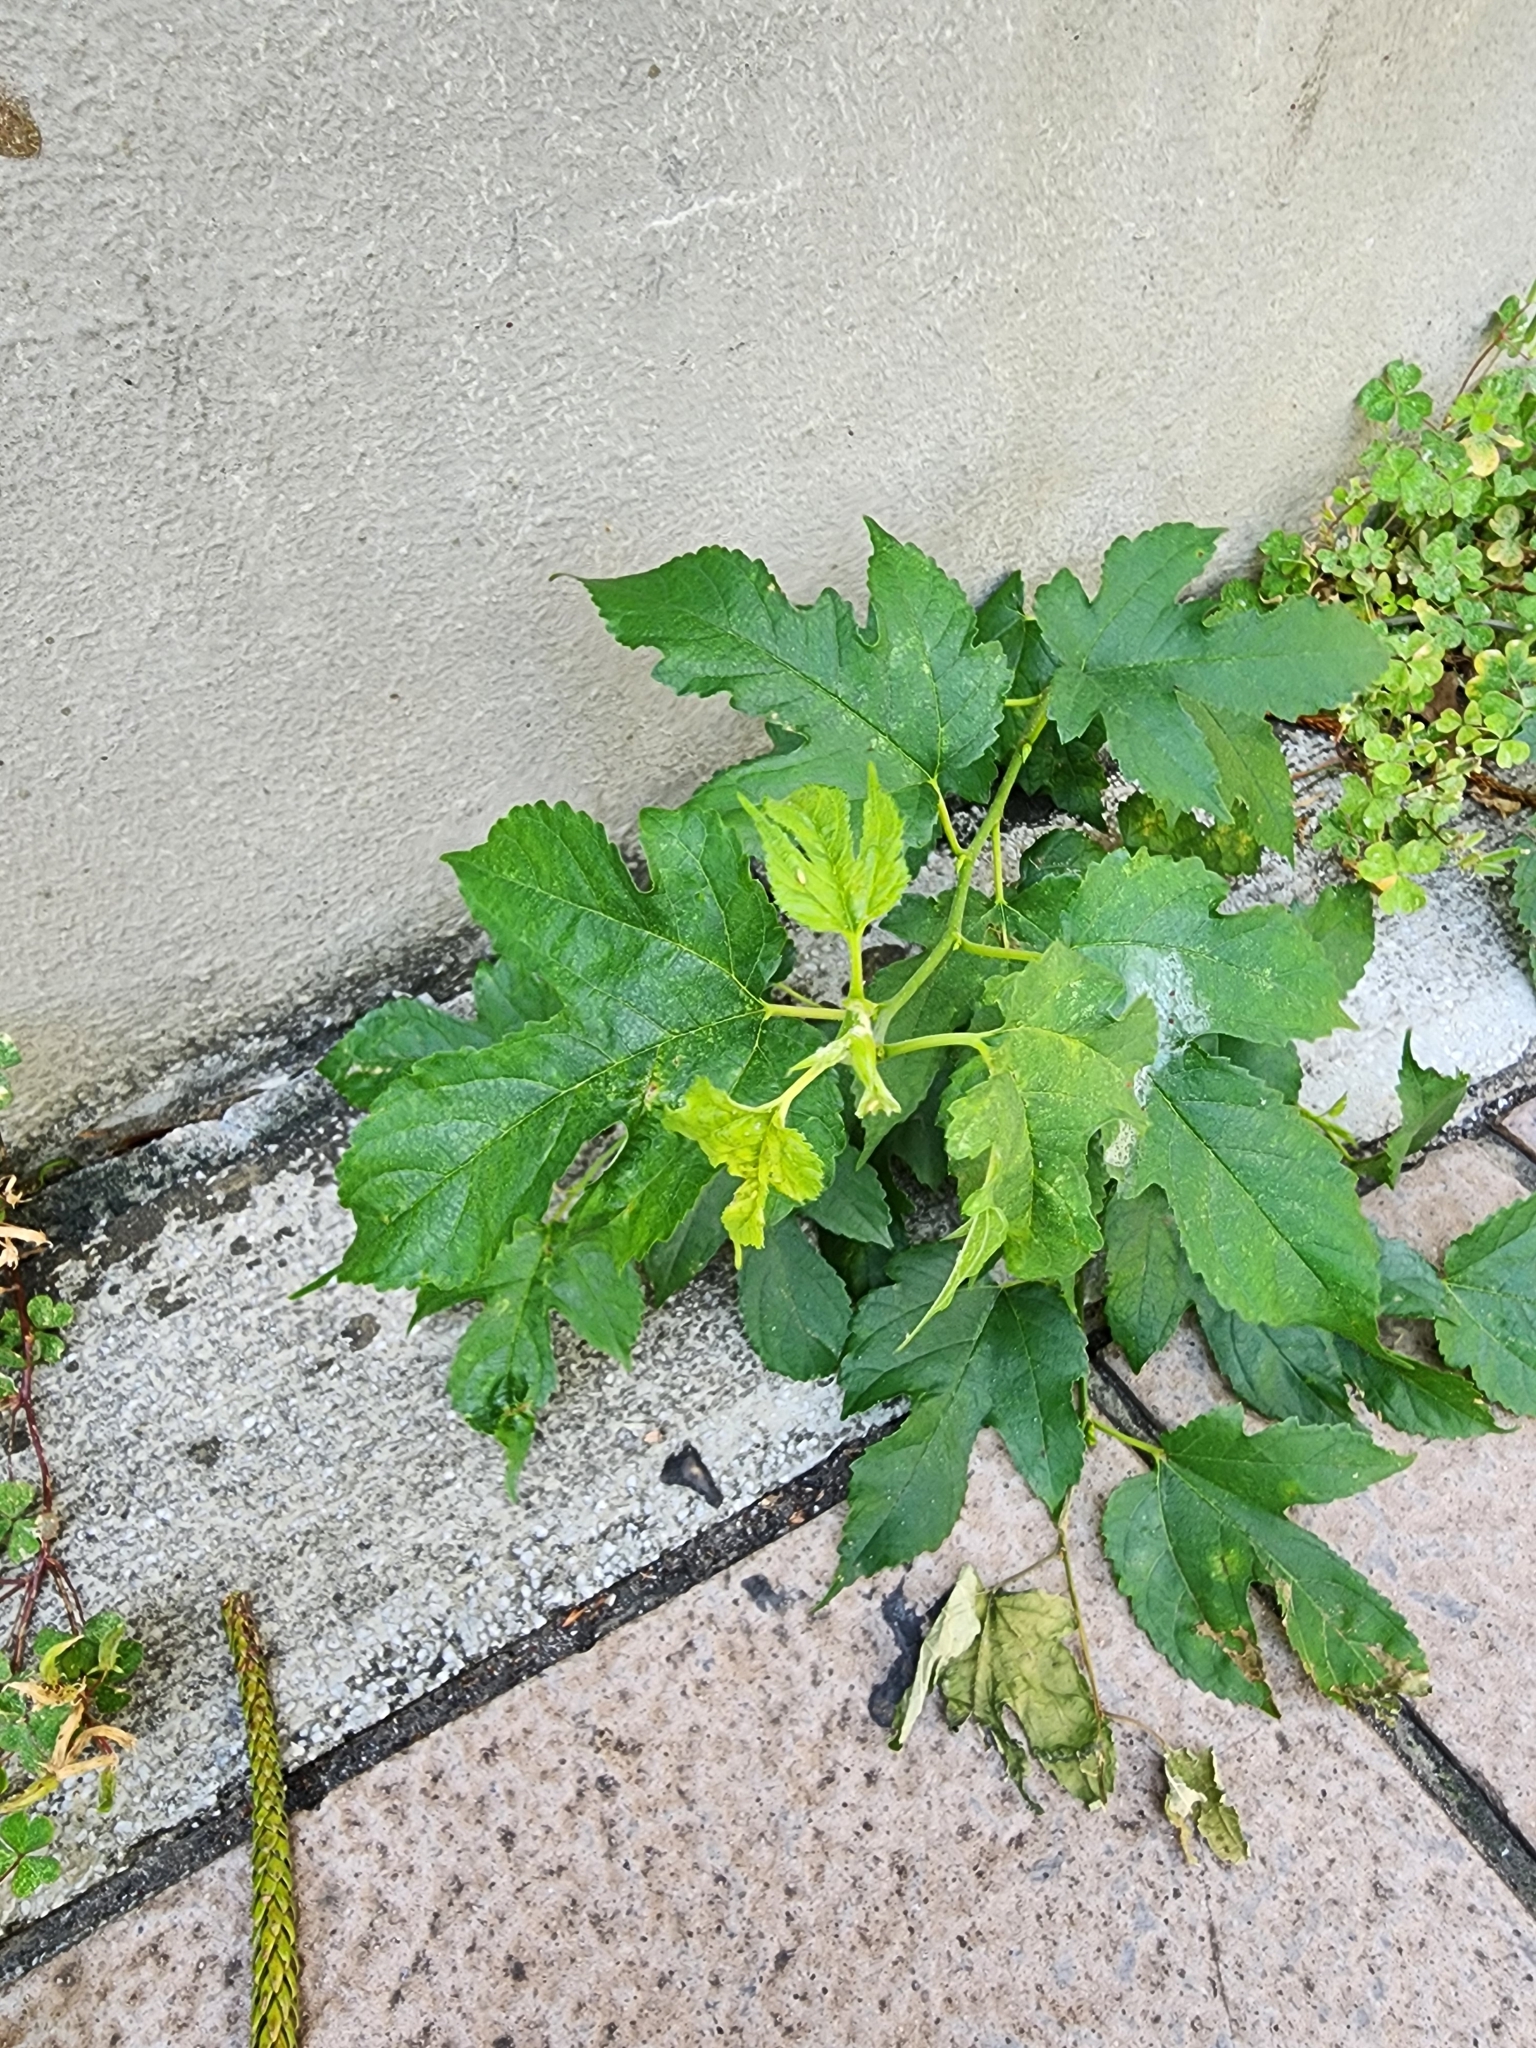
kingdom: Plantae
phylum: Tracheophyta
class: Magnoliopsida
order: Rosales
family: Moraceae
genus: Morus
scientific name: Morus indica
